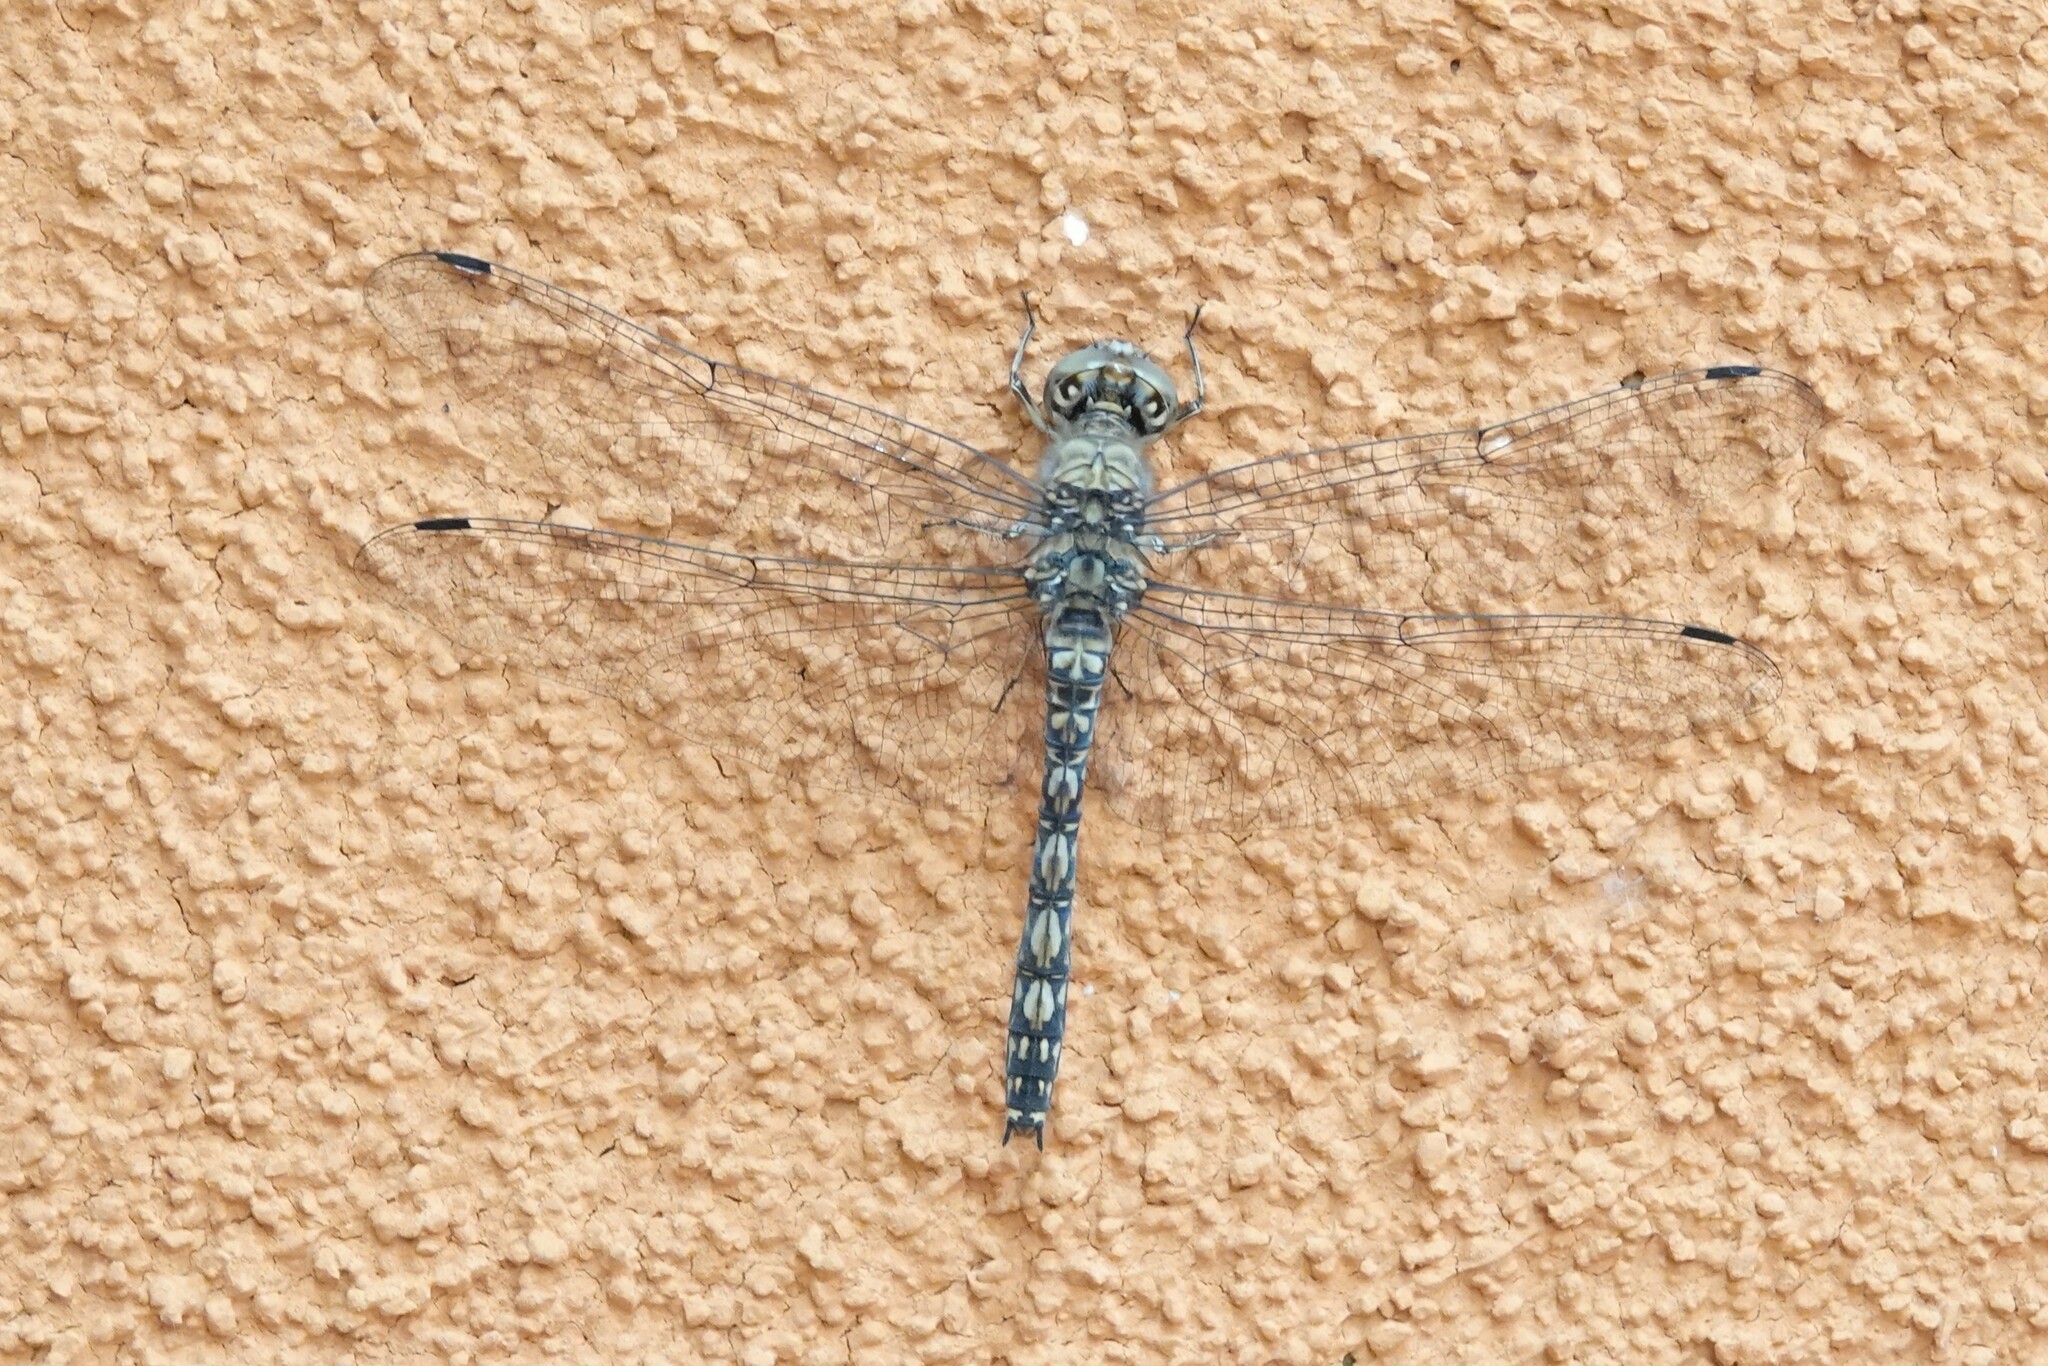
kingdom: Animalia
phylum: Arthropoda
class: Insecta
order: Odonata
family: Libellulidae
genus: Paltothemis
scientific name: Paltothemis lineatipes
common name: Red rock skimmer
